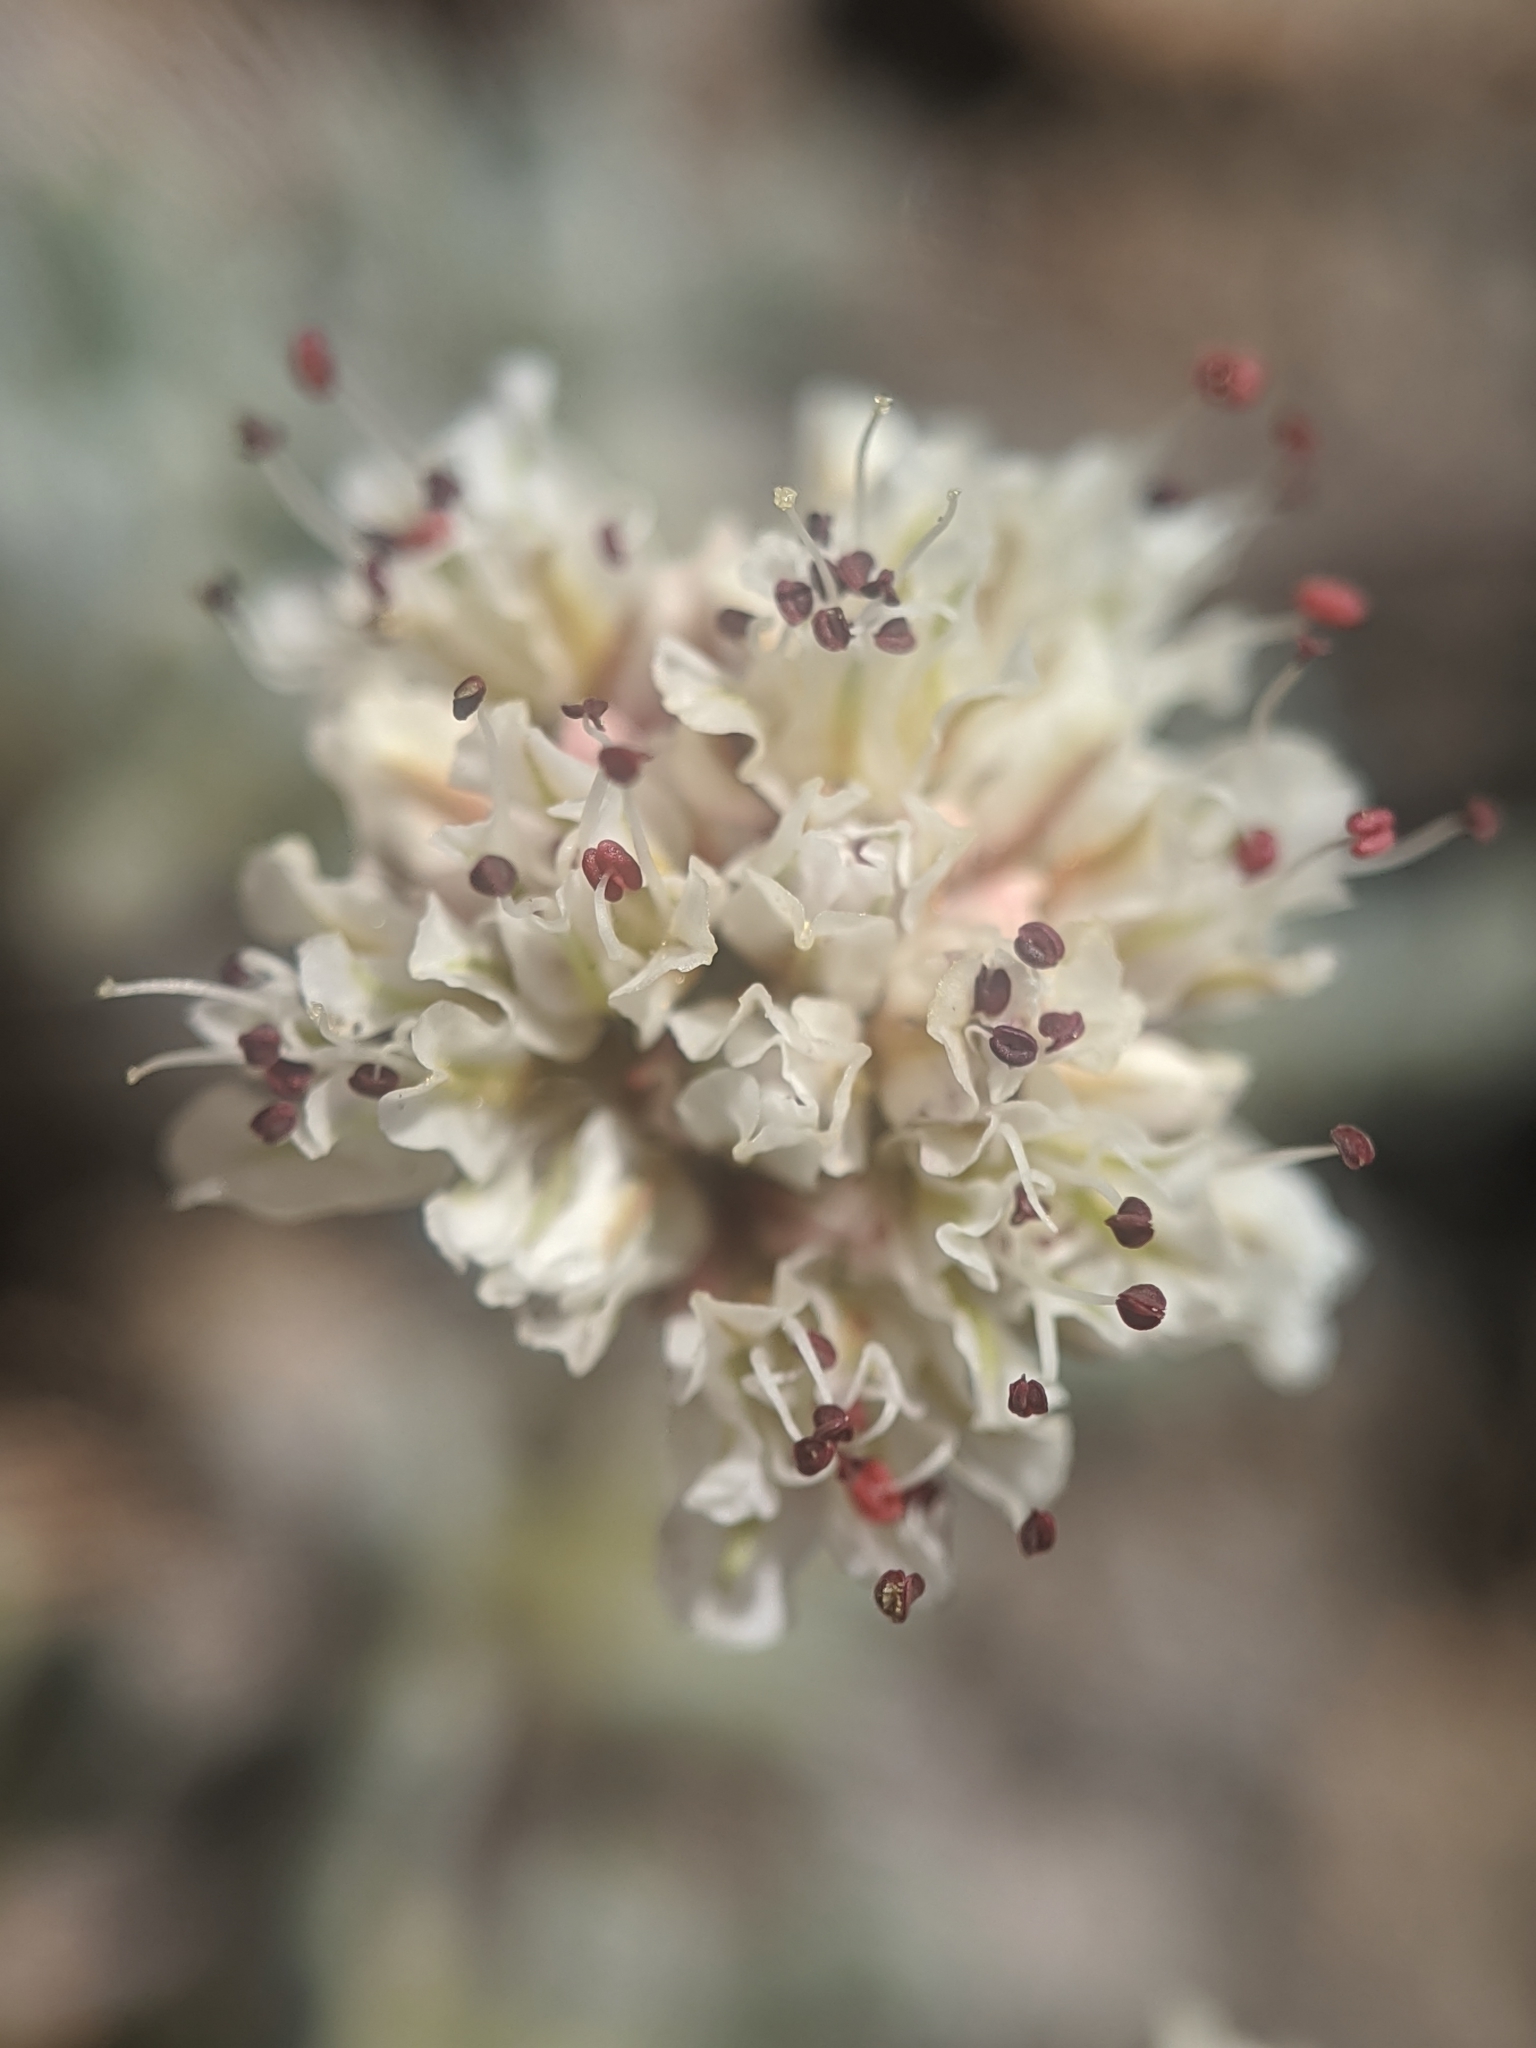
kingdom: Plantae
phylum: Tracheophyta
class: Magnoliopsida
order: Caryophyllales
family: Polygonaceae
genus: Eriogonum
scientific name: Eriogonum gracilipes
